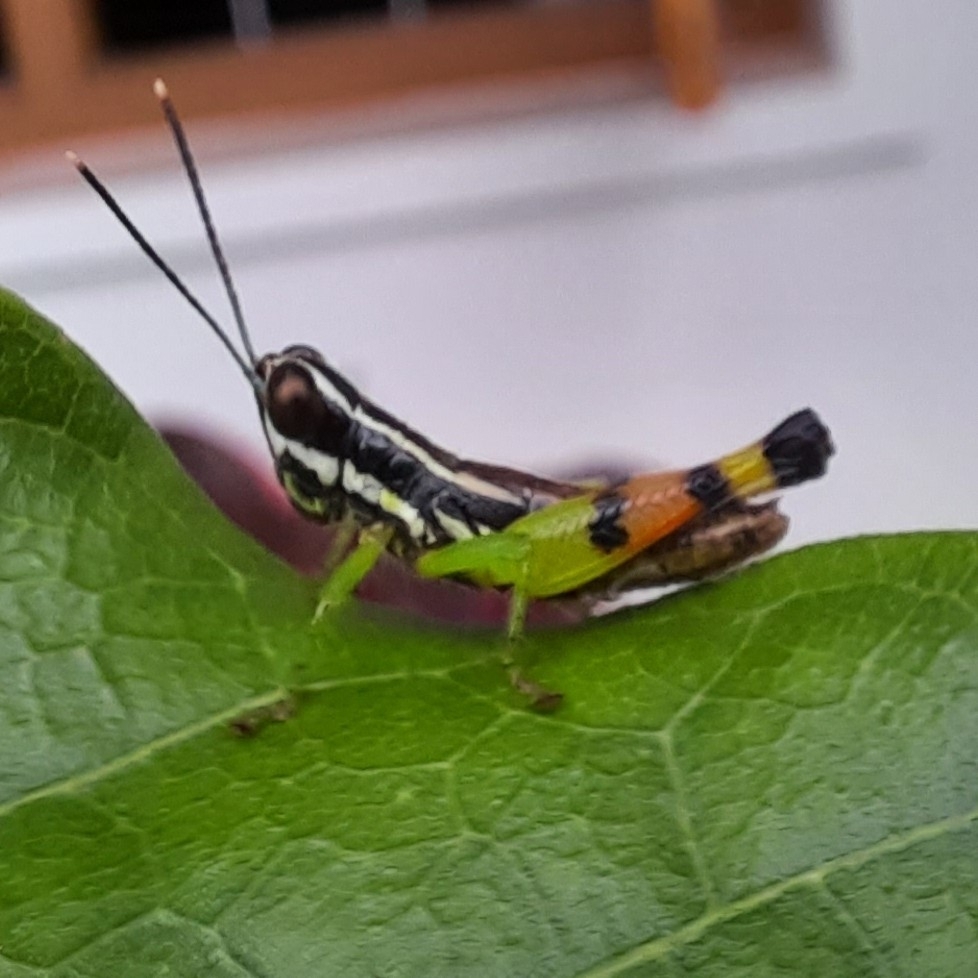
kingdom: Animalia
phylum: Arthropoda
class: Insecta
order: Orthoptera
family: Acrididae
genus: Chitaura
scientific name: Chitaura indica
